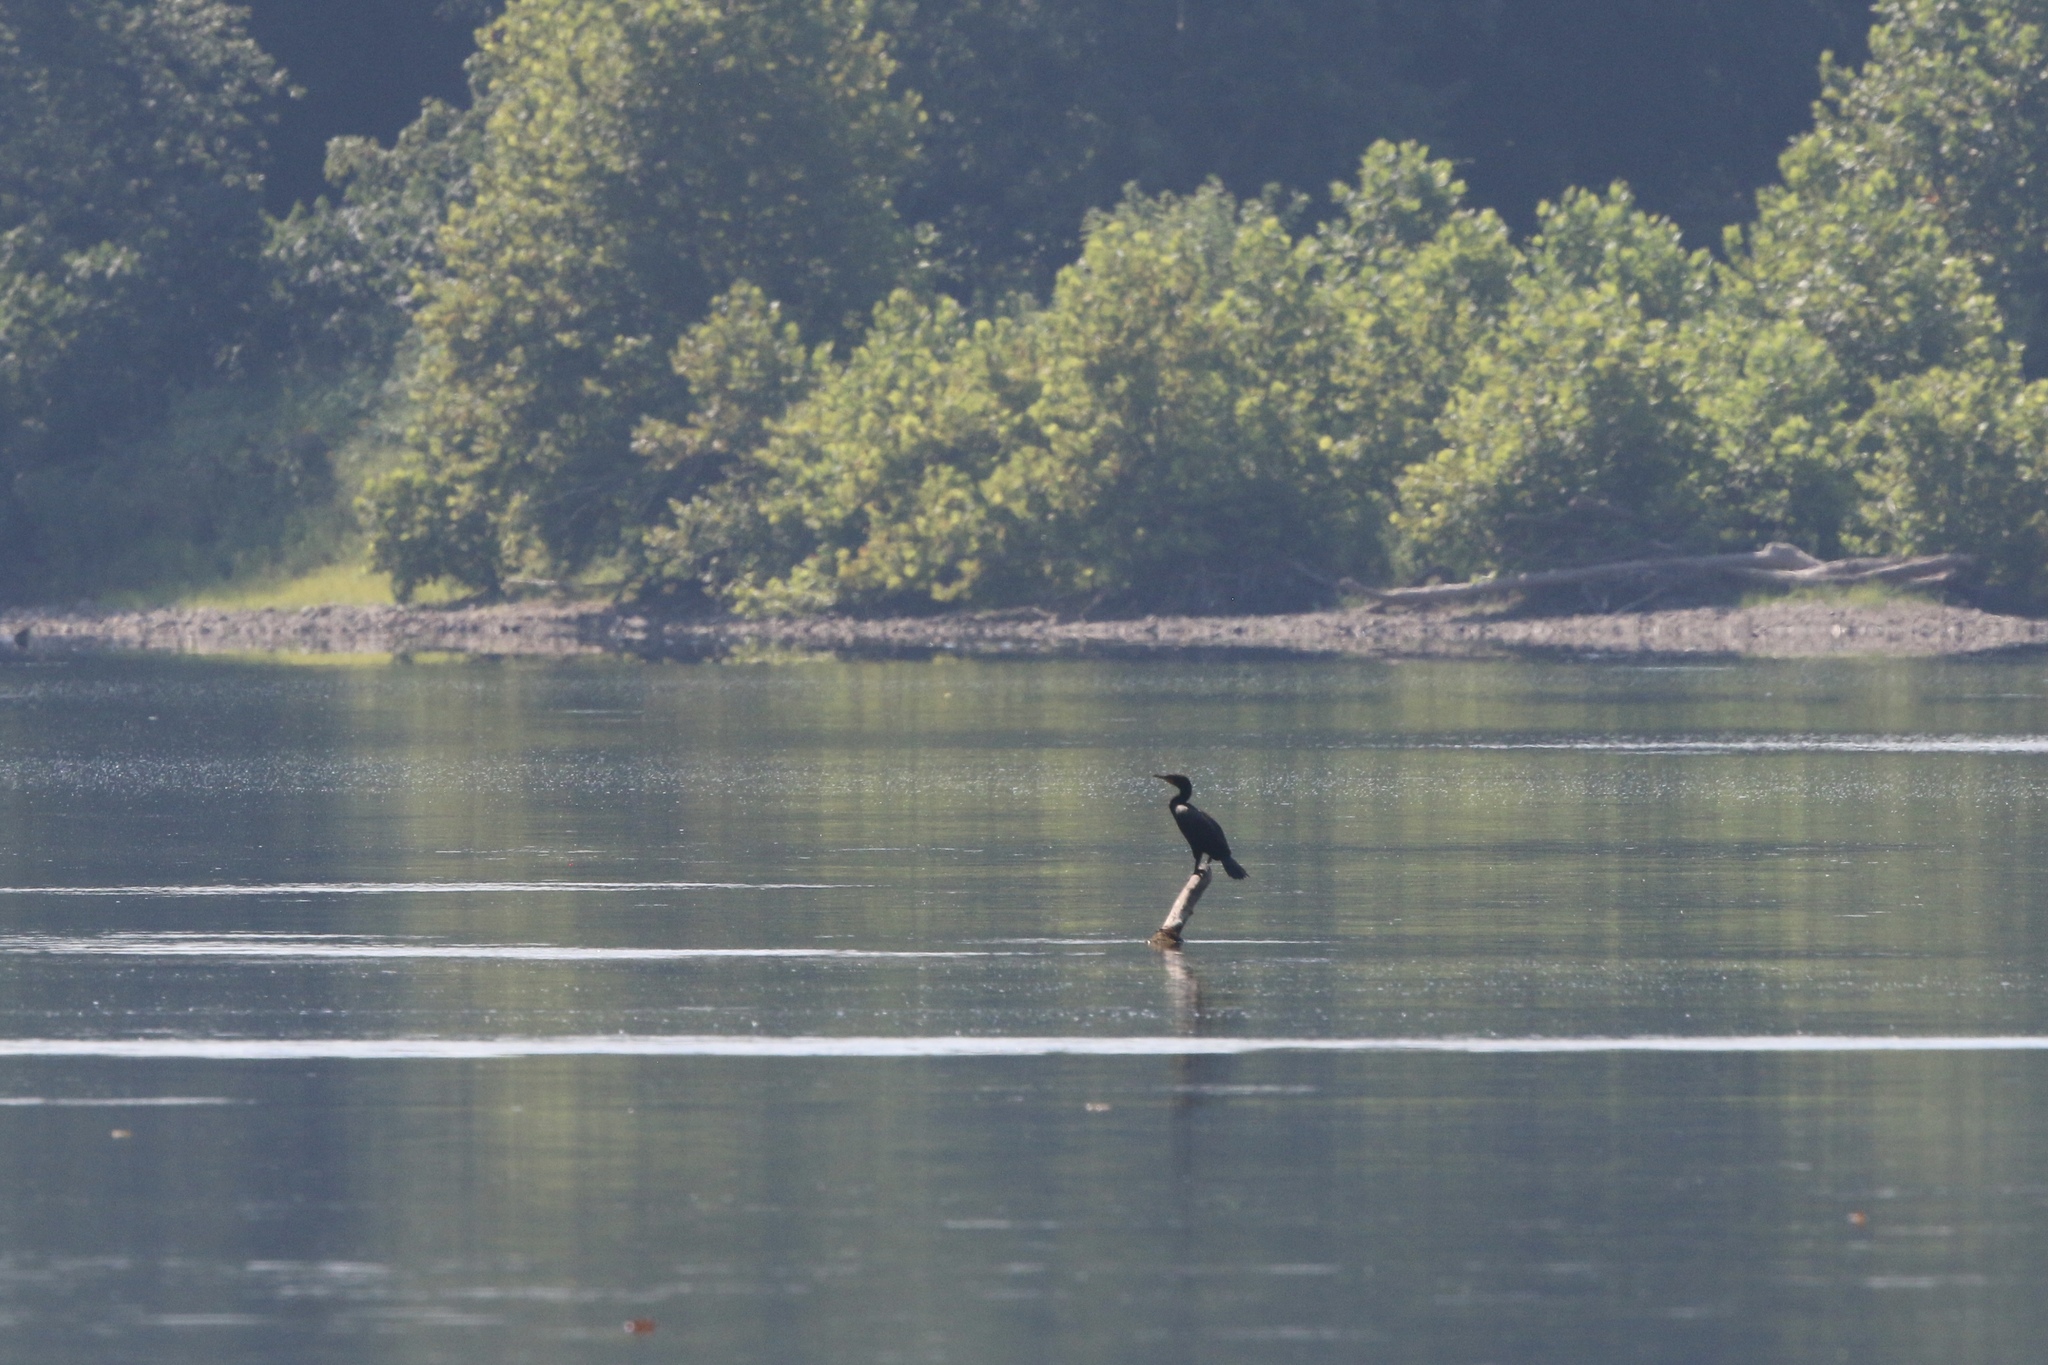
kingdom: Animalia
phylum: Chordata
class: Aves
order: Suliformes
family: Phalacrocoracidae
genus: Phalacrocorax
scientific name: Phalacrocorax auritus
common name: Double-crested cormorant
